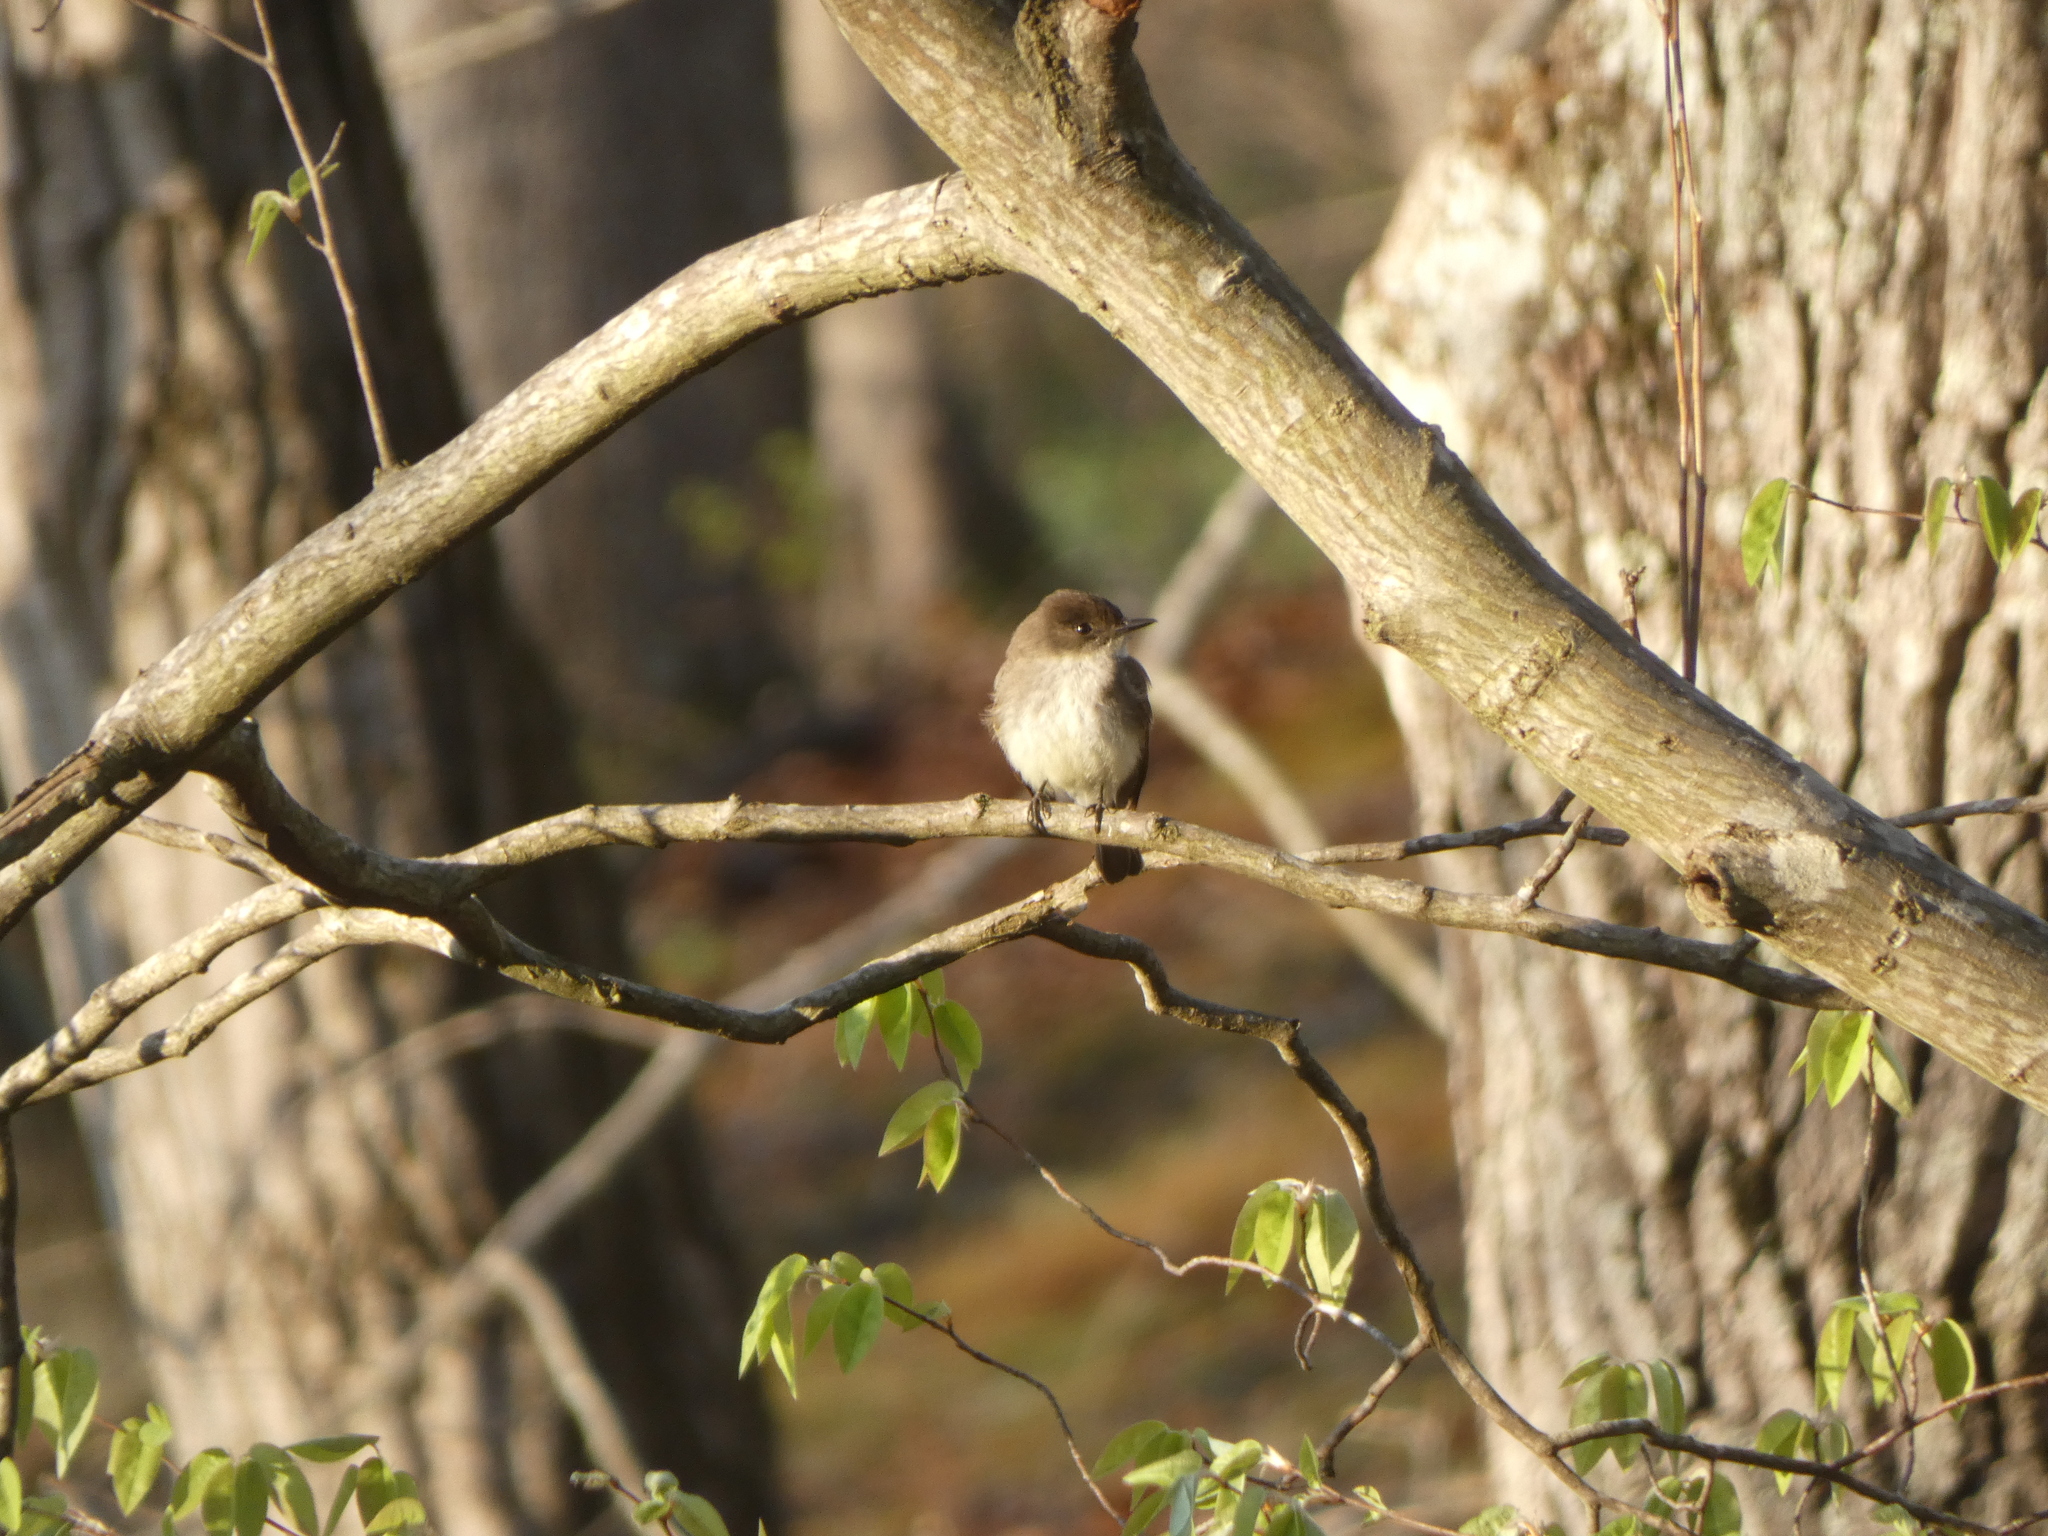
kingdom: Animalia
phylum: Chordata
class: Aves
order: Passeriformes
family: Tyrannidae
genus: Sayornis
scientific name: Sayornis phoebe
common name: Eastern phoebe
